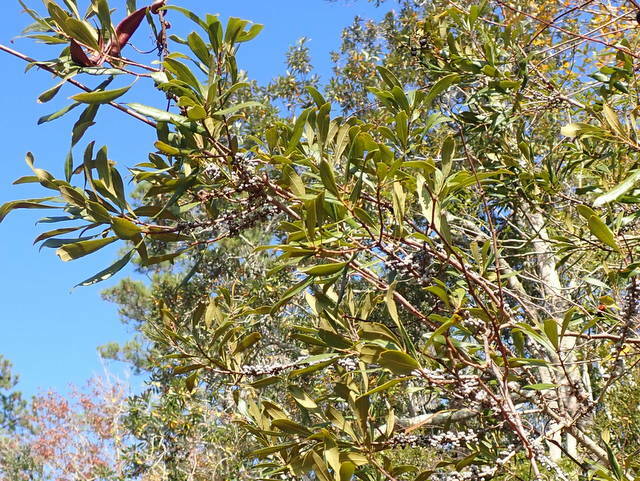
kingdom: Plantae
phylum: Tracheophyta
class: Magnoliopsida
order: Fagales
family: Myricaceae
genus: Morella
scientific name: Morella cerifera
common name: Wax myrtle
